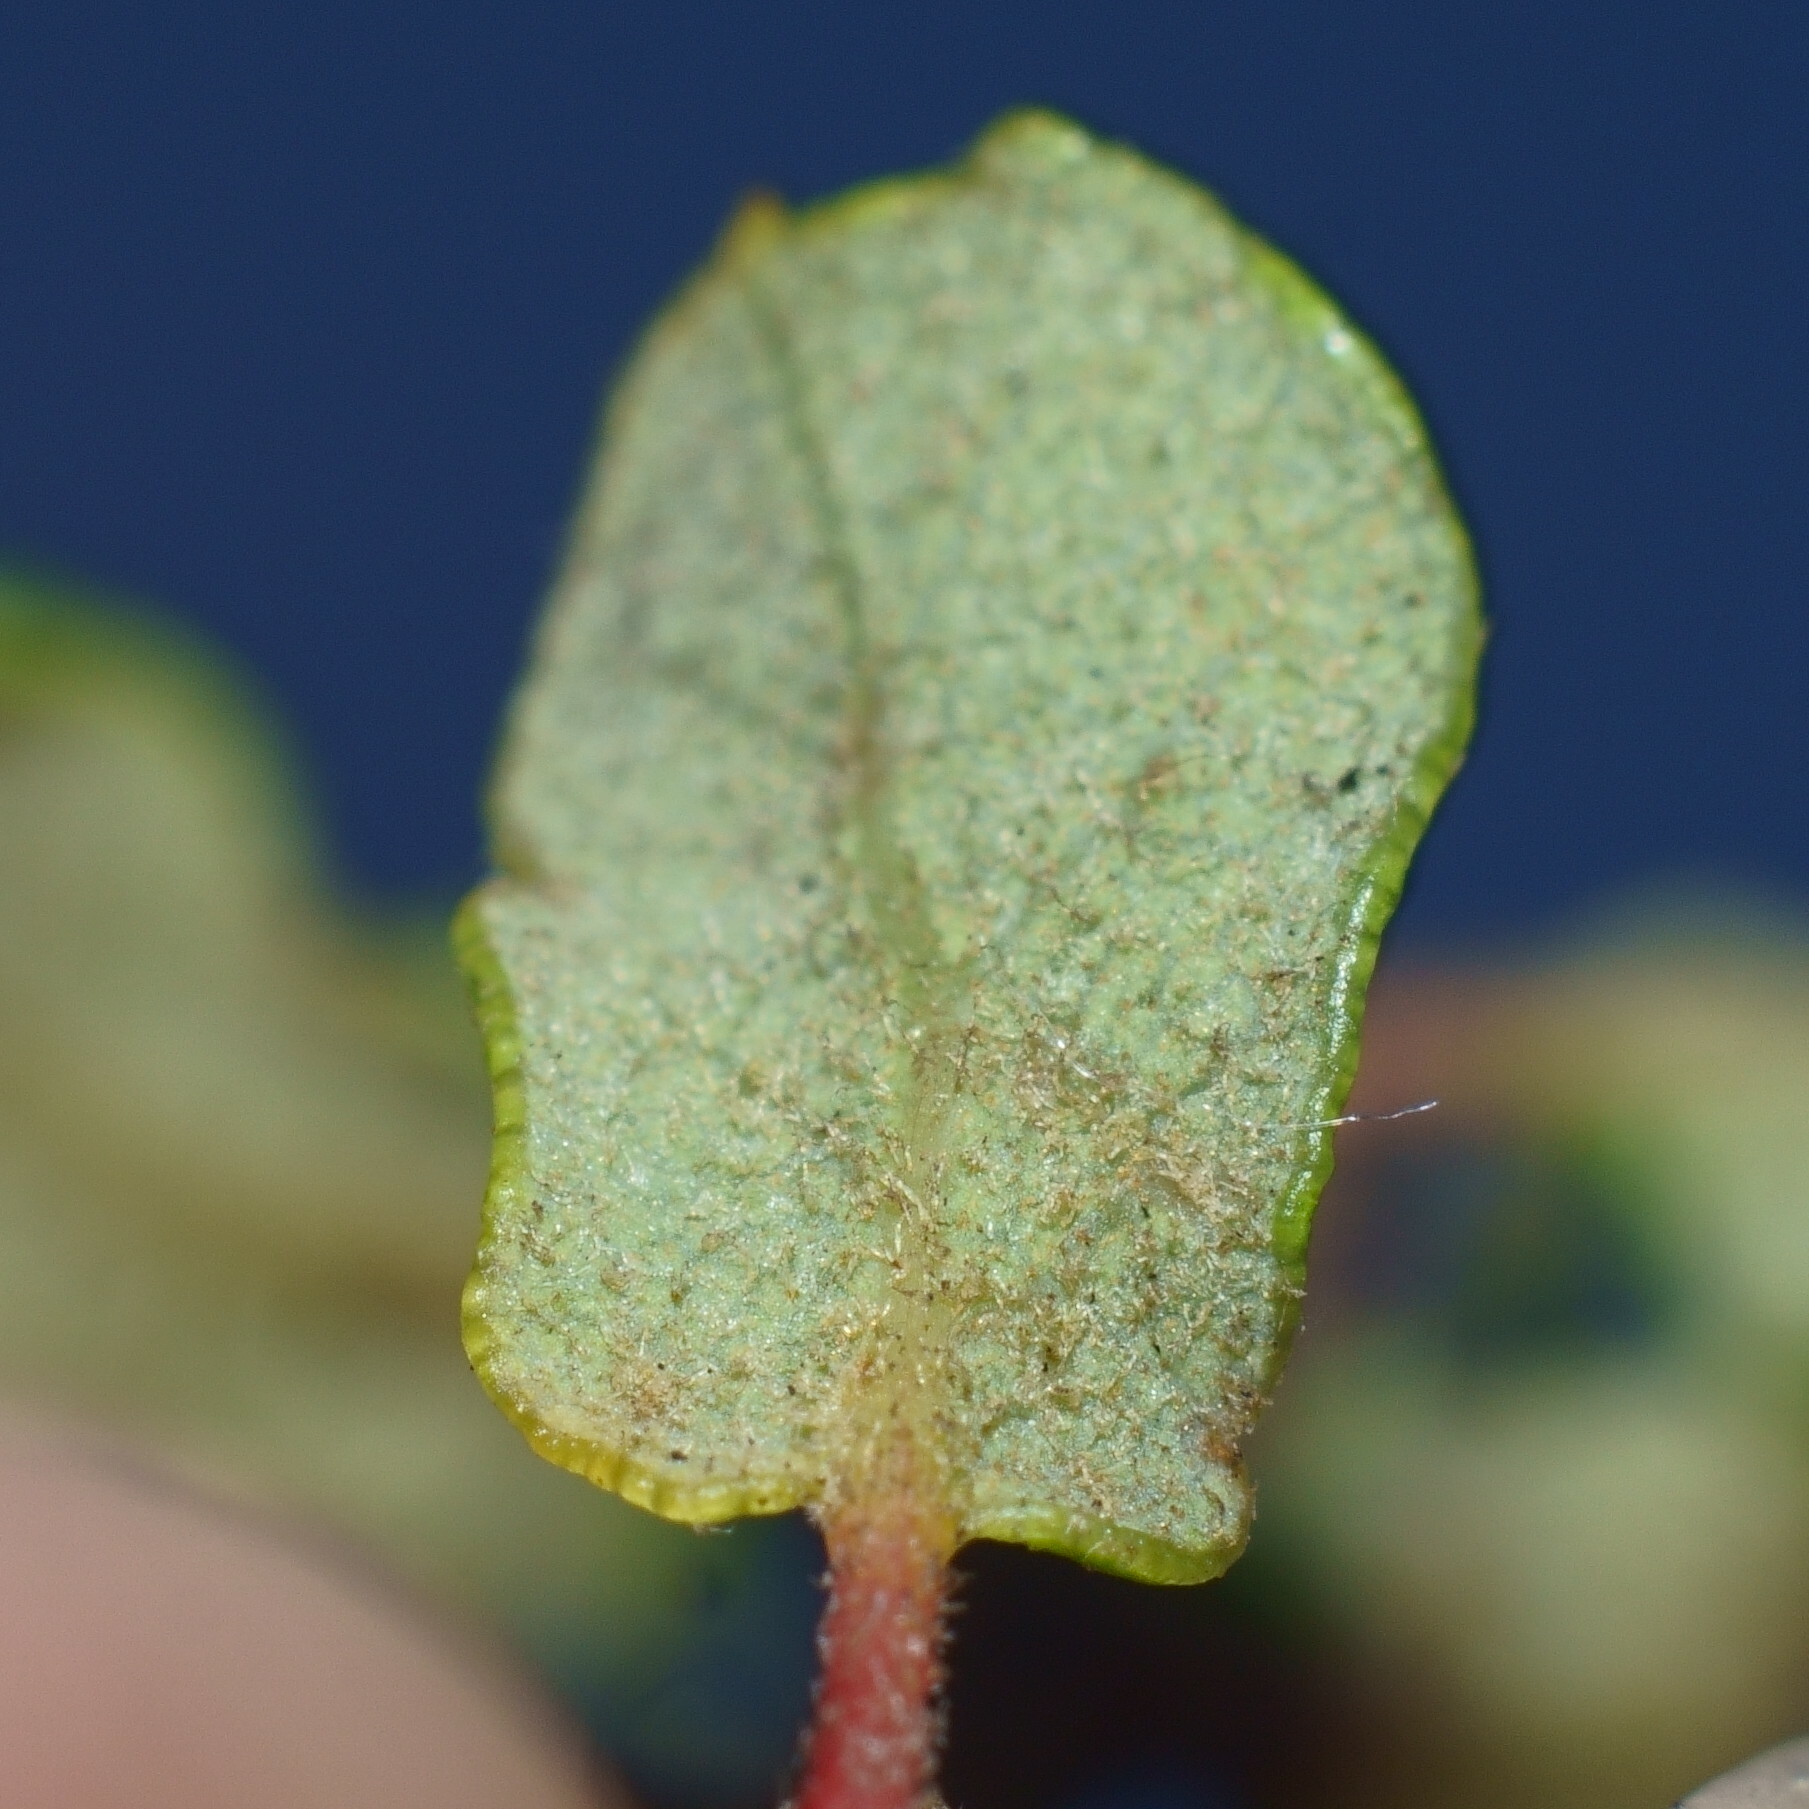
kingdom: Plantae
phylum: Tracheophyta
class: Magnoliopsida
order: Fagales
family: Fagaceae
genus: Quercus
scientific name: Quercus dumosa
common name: Coastal sage scrub oak
